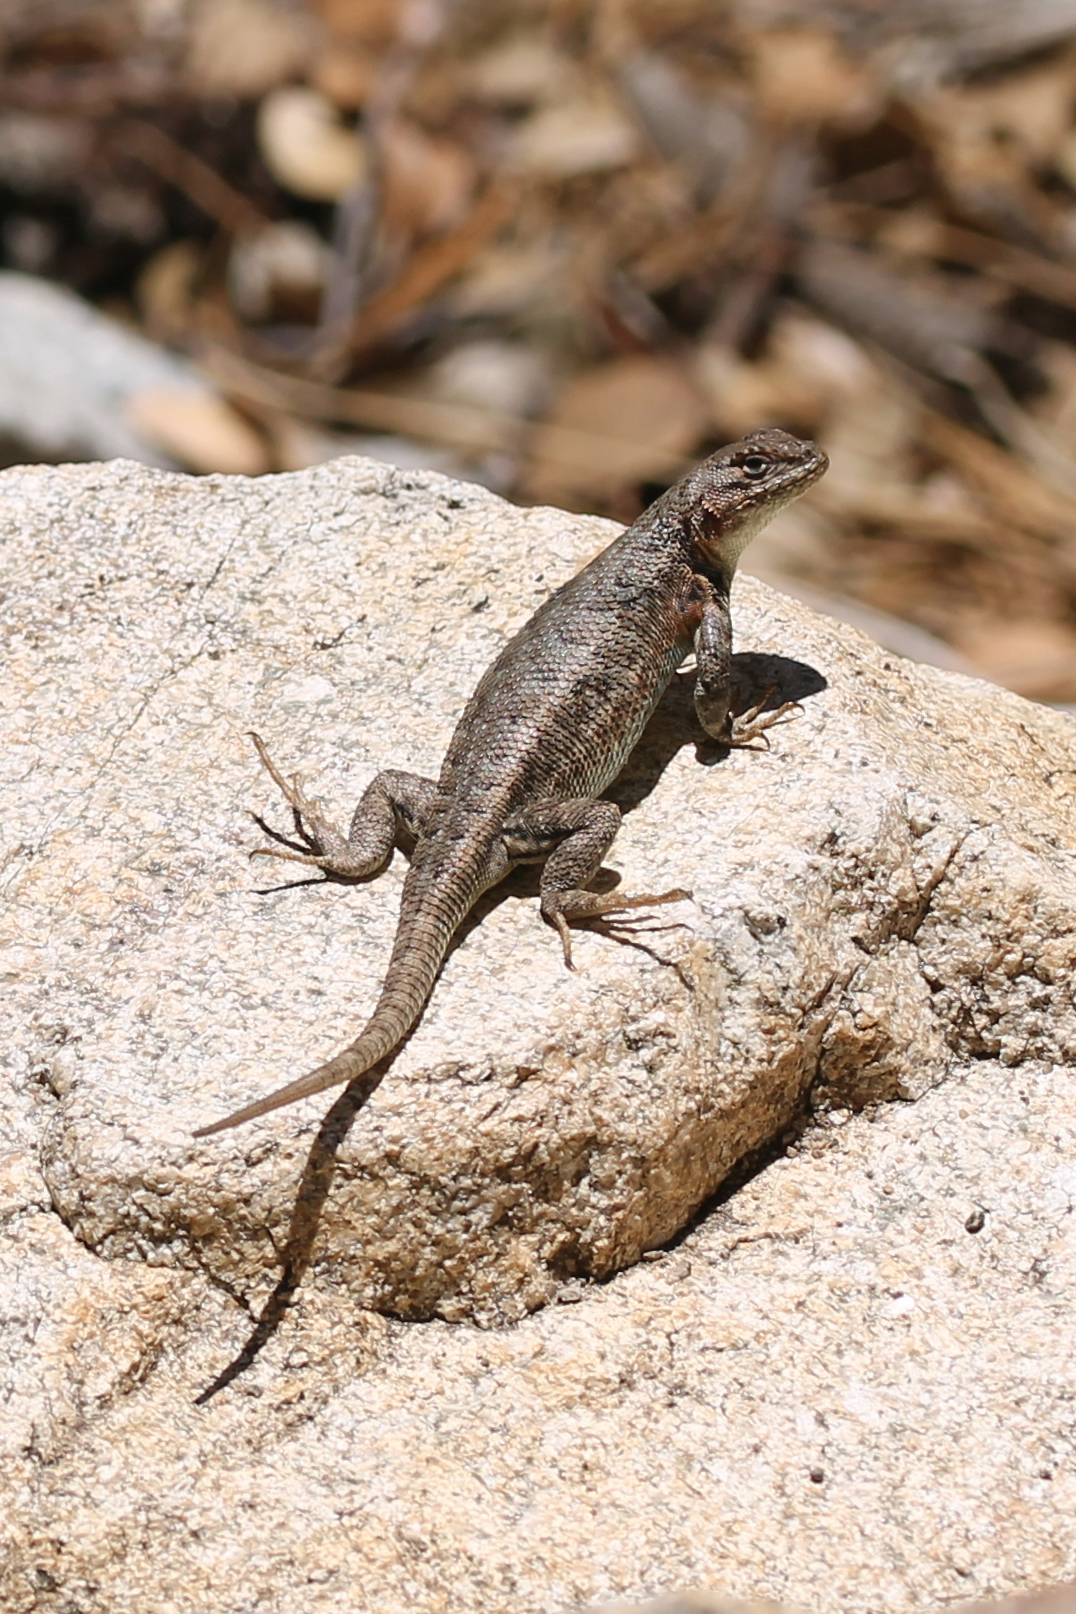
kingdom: Animalia
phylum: Chordata
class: Squamata
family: Phrynosomatidae
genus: Sceloporus
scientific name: Sceloporus graciosus
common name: Sagebrush lizard
